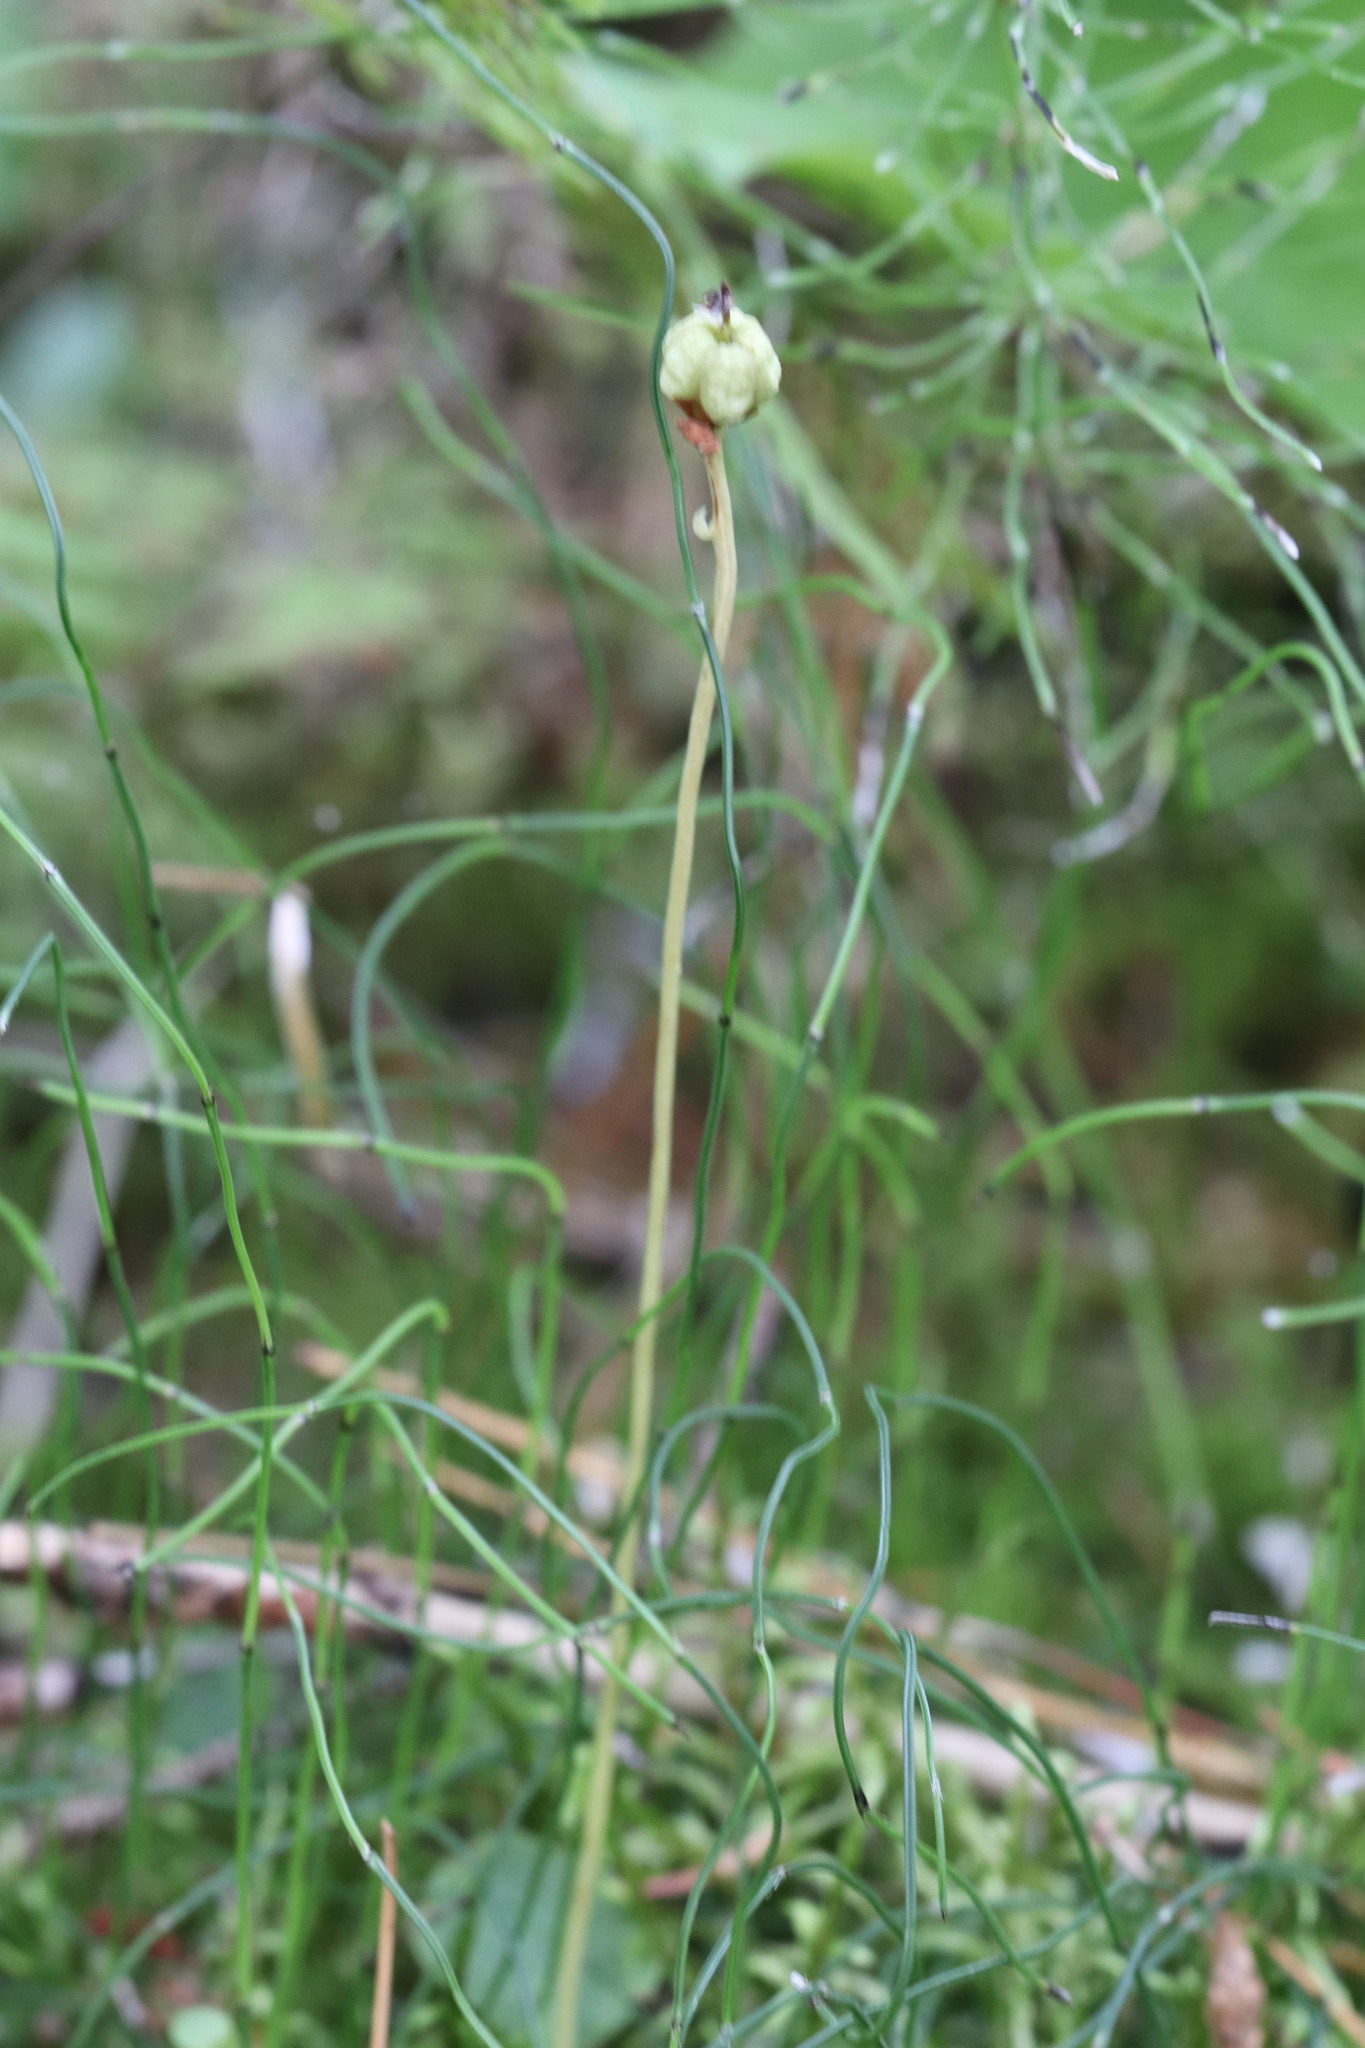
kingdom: Plantae
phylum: Tracheophyta
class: Magnoliopsida
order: Ericales
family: Ericaceae
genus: Moneses
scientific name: Moneses uniflora
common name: One-flowered wintergreen
